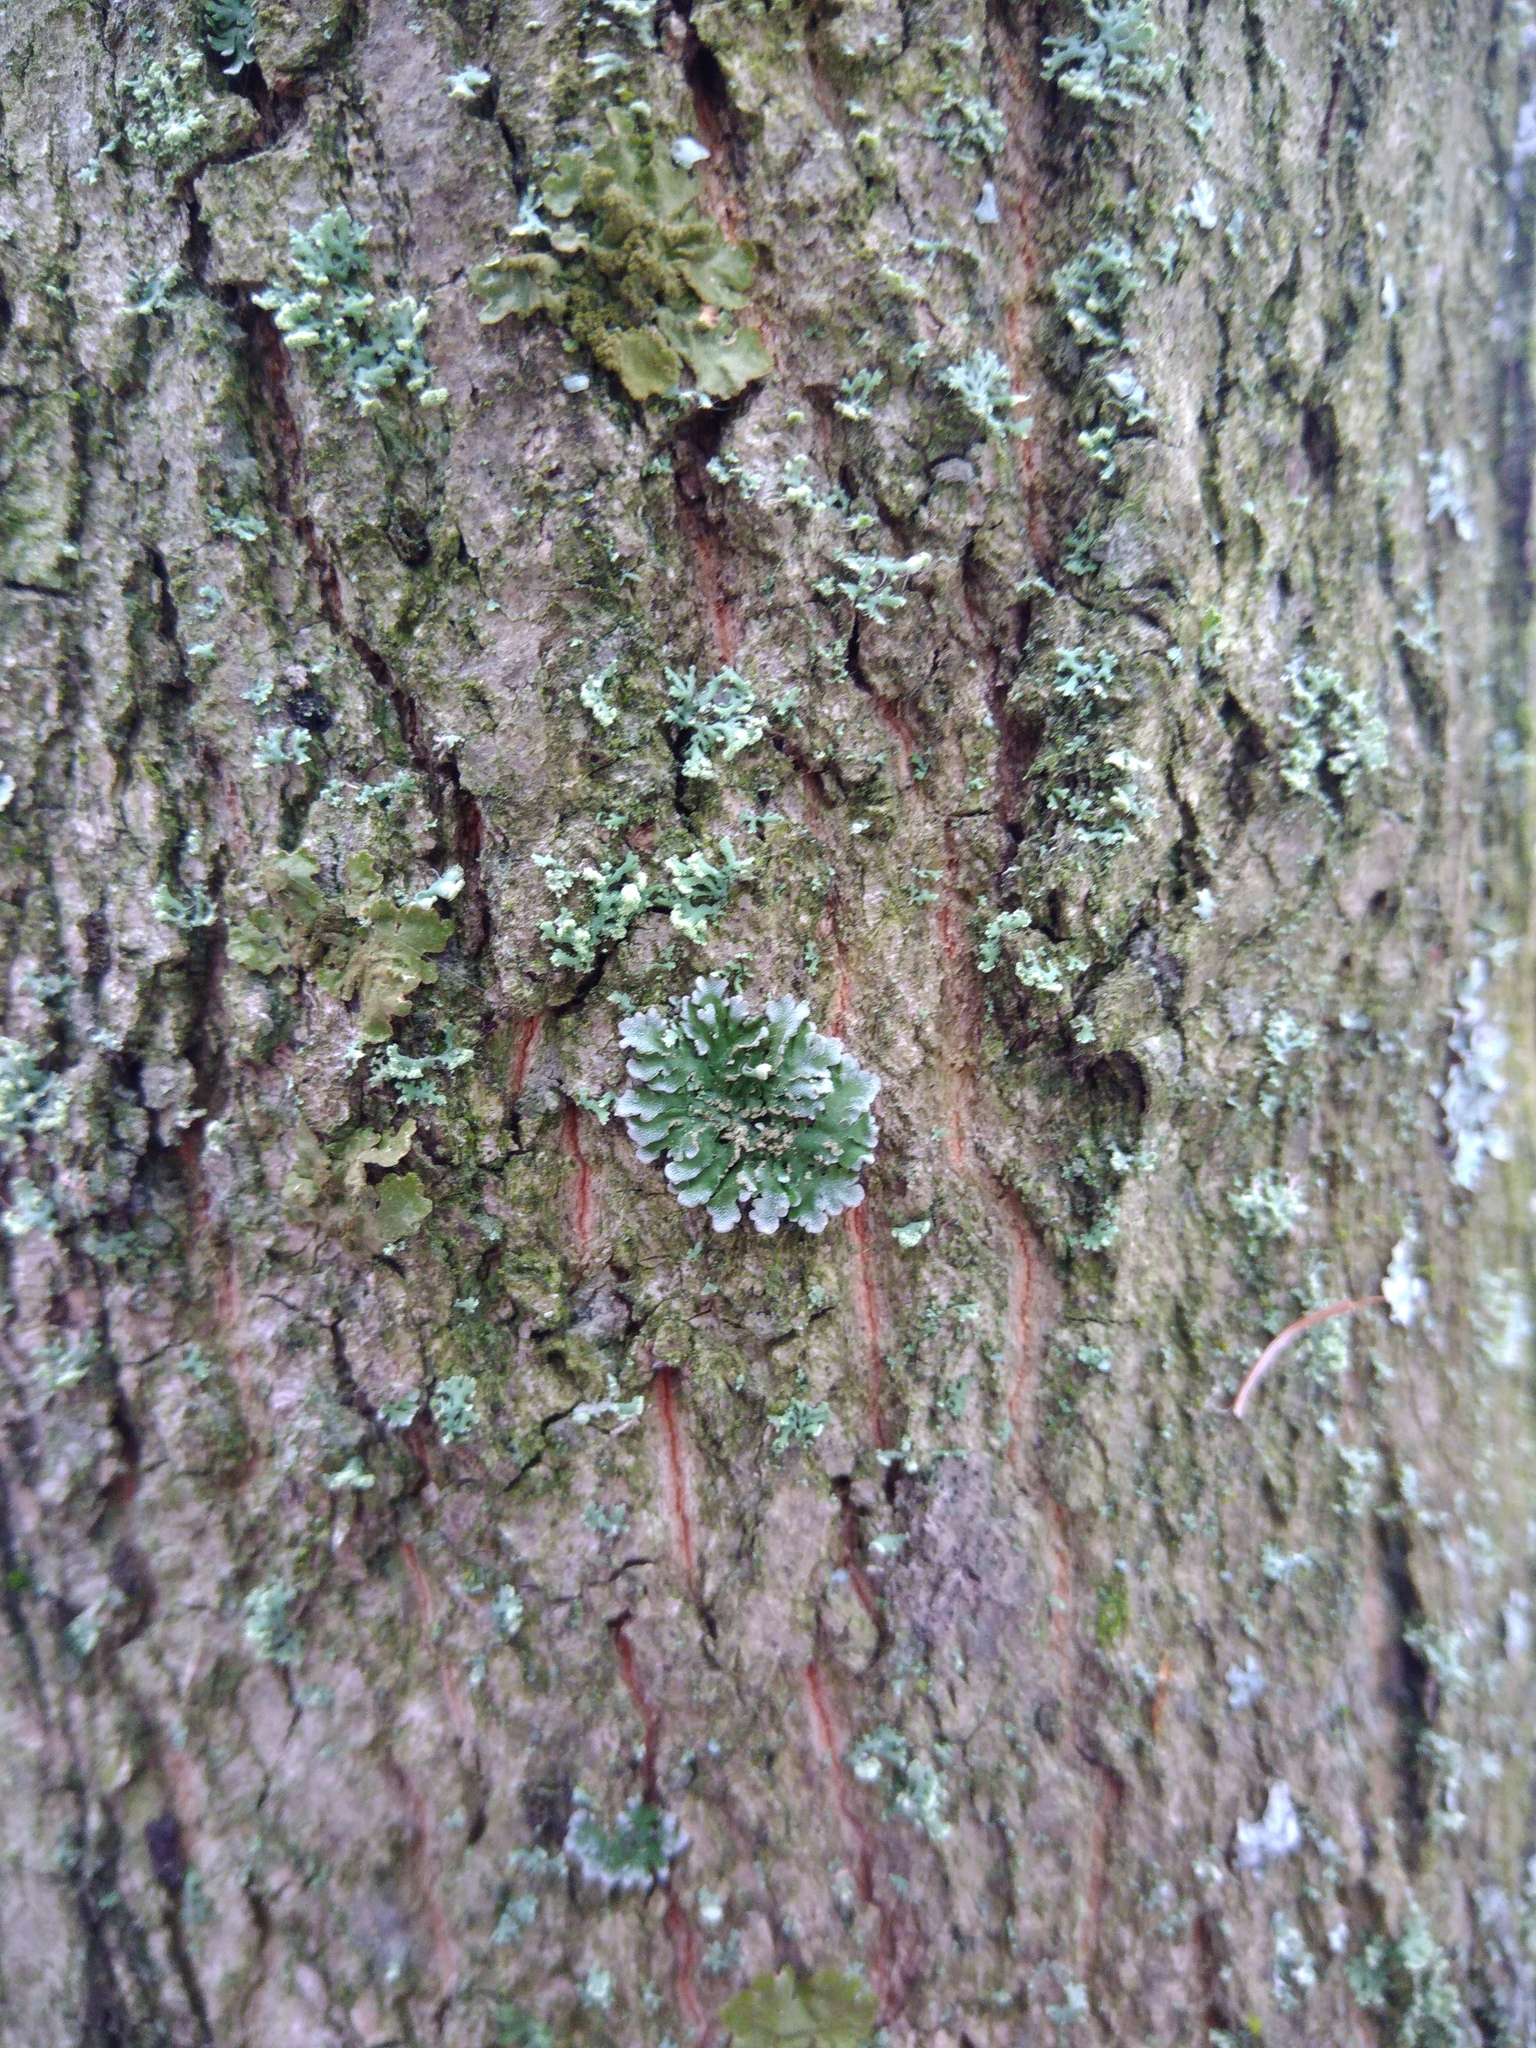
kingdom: Fungi
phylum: Ascomycota
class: Lecanoromycetes
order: Caliciales
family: Physciaceae
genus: Poeltonia
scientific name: Poeltonia grisea
